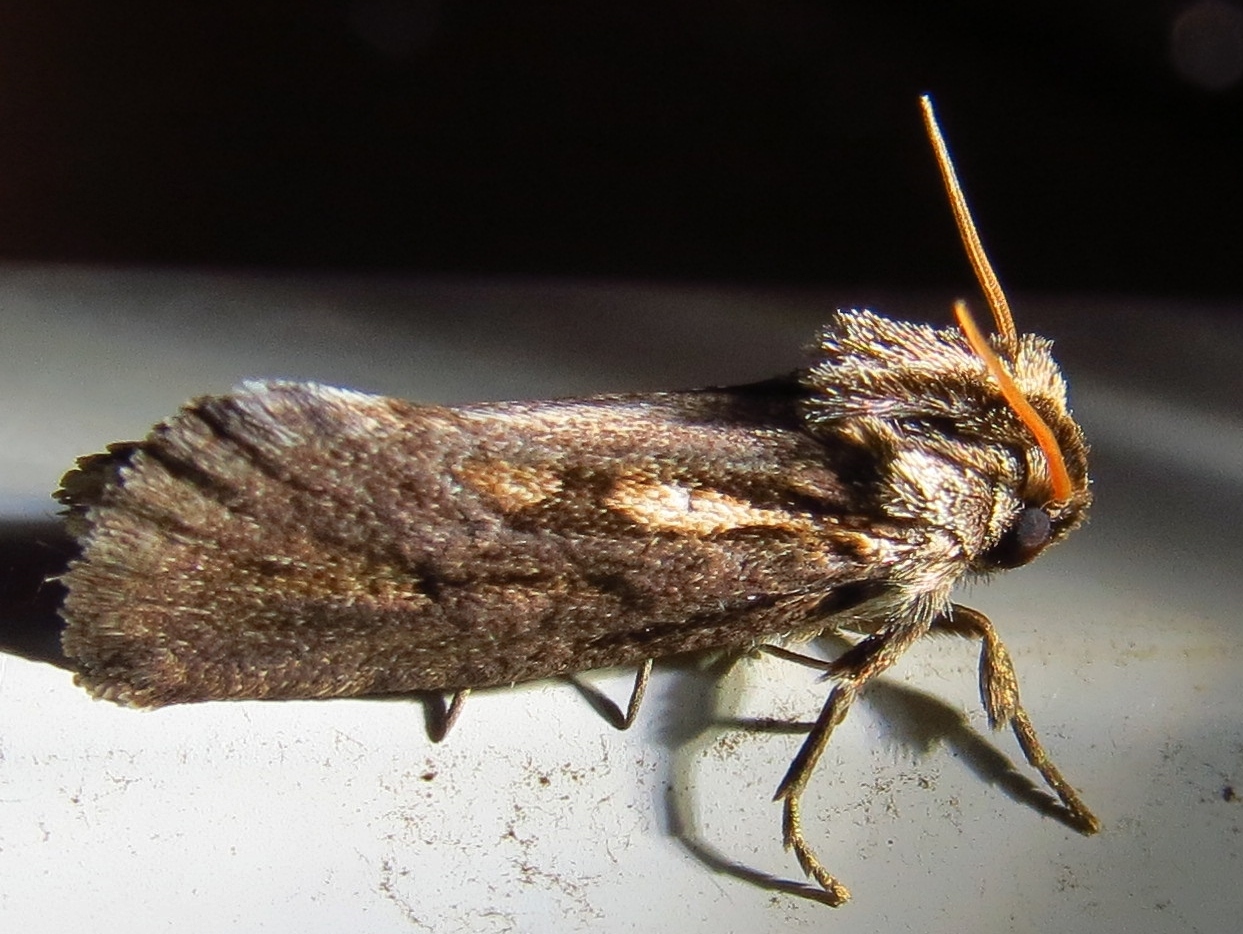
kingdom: Animalia
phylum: Arthropoda
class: Insecta
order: Lepidoptera
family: Tineidae
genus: Acrolophus
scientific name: Acrolophus popeanella
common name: Clemens' grass tubeworm moth
